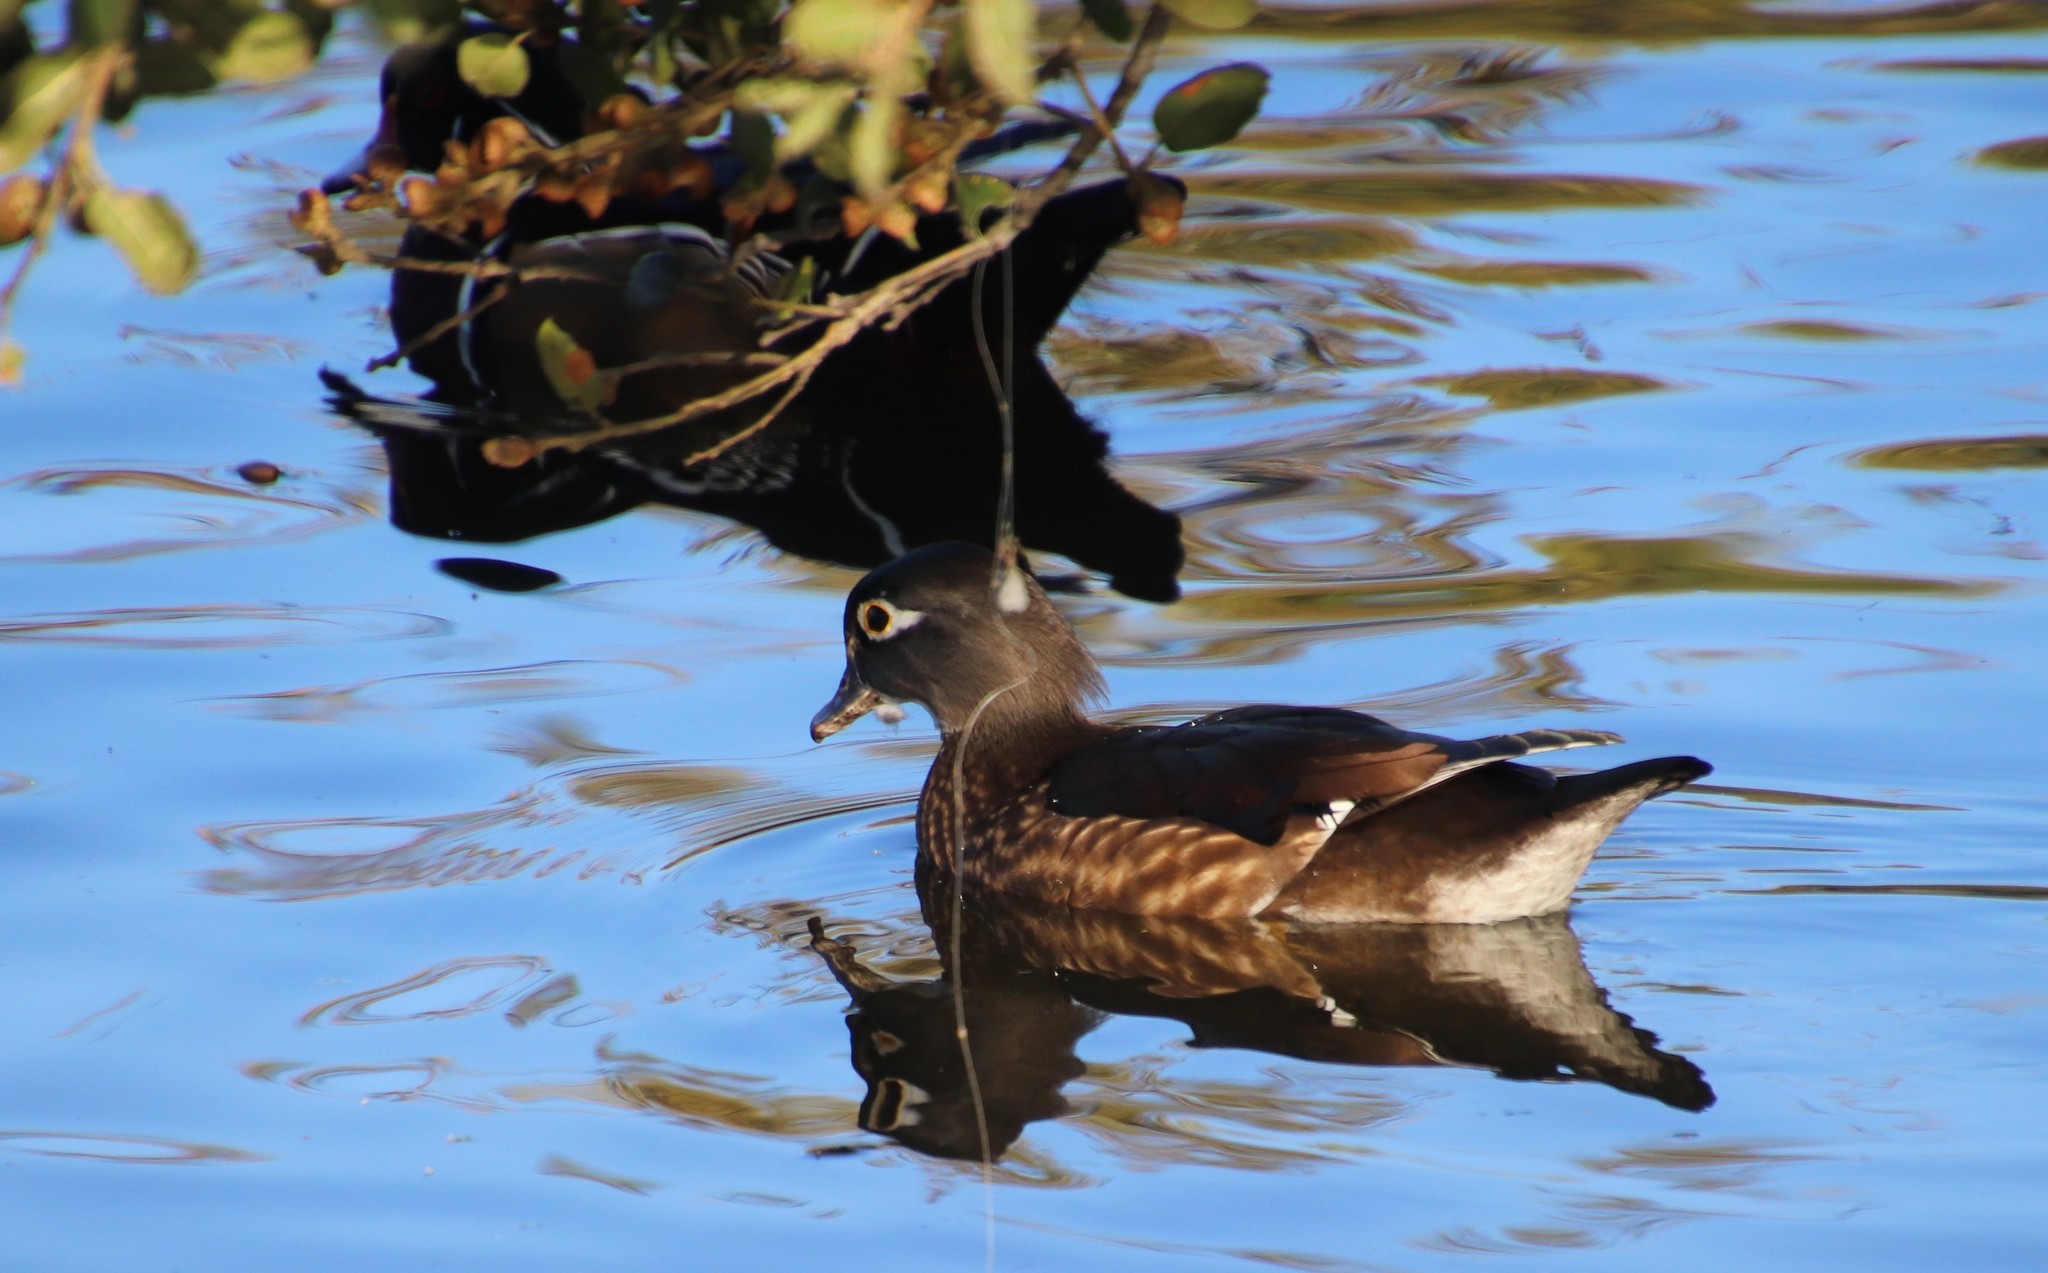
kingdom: Animalia
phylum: Chordata
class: Aves
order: Anseriformes
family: Anatidae
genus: Aix
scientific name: Aix sponsa
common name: Wood duck
